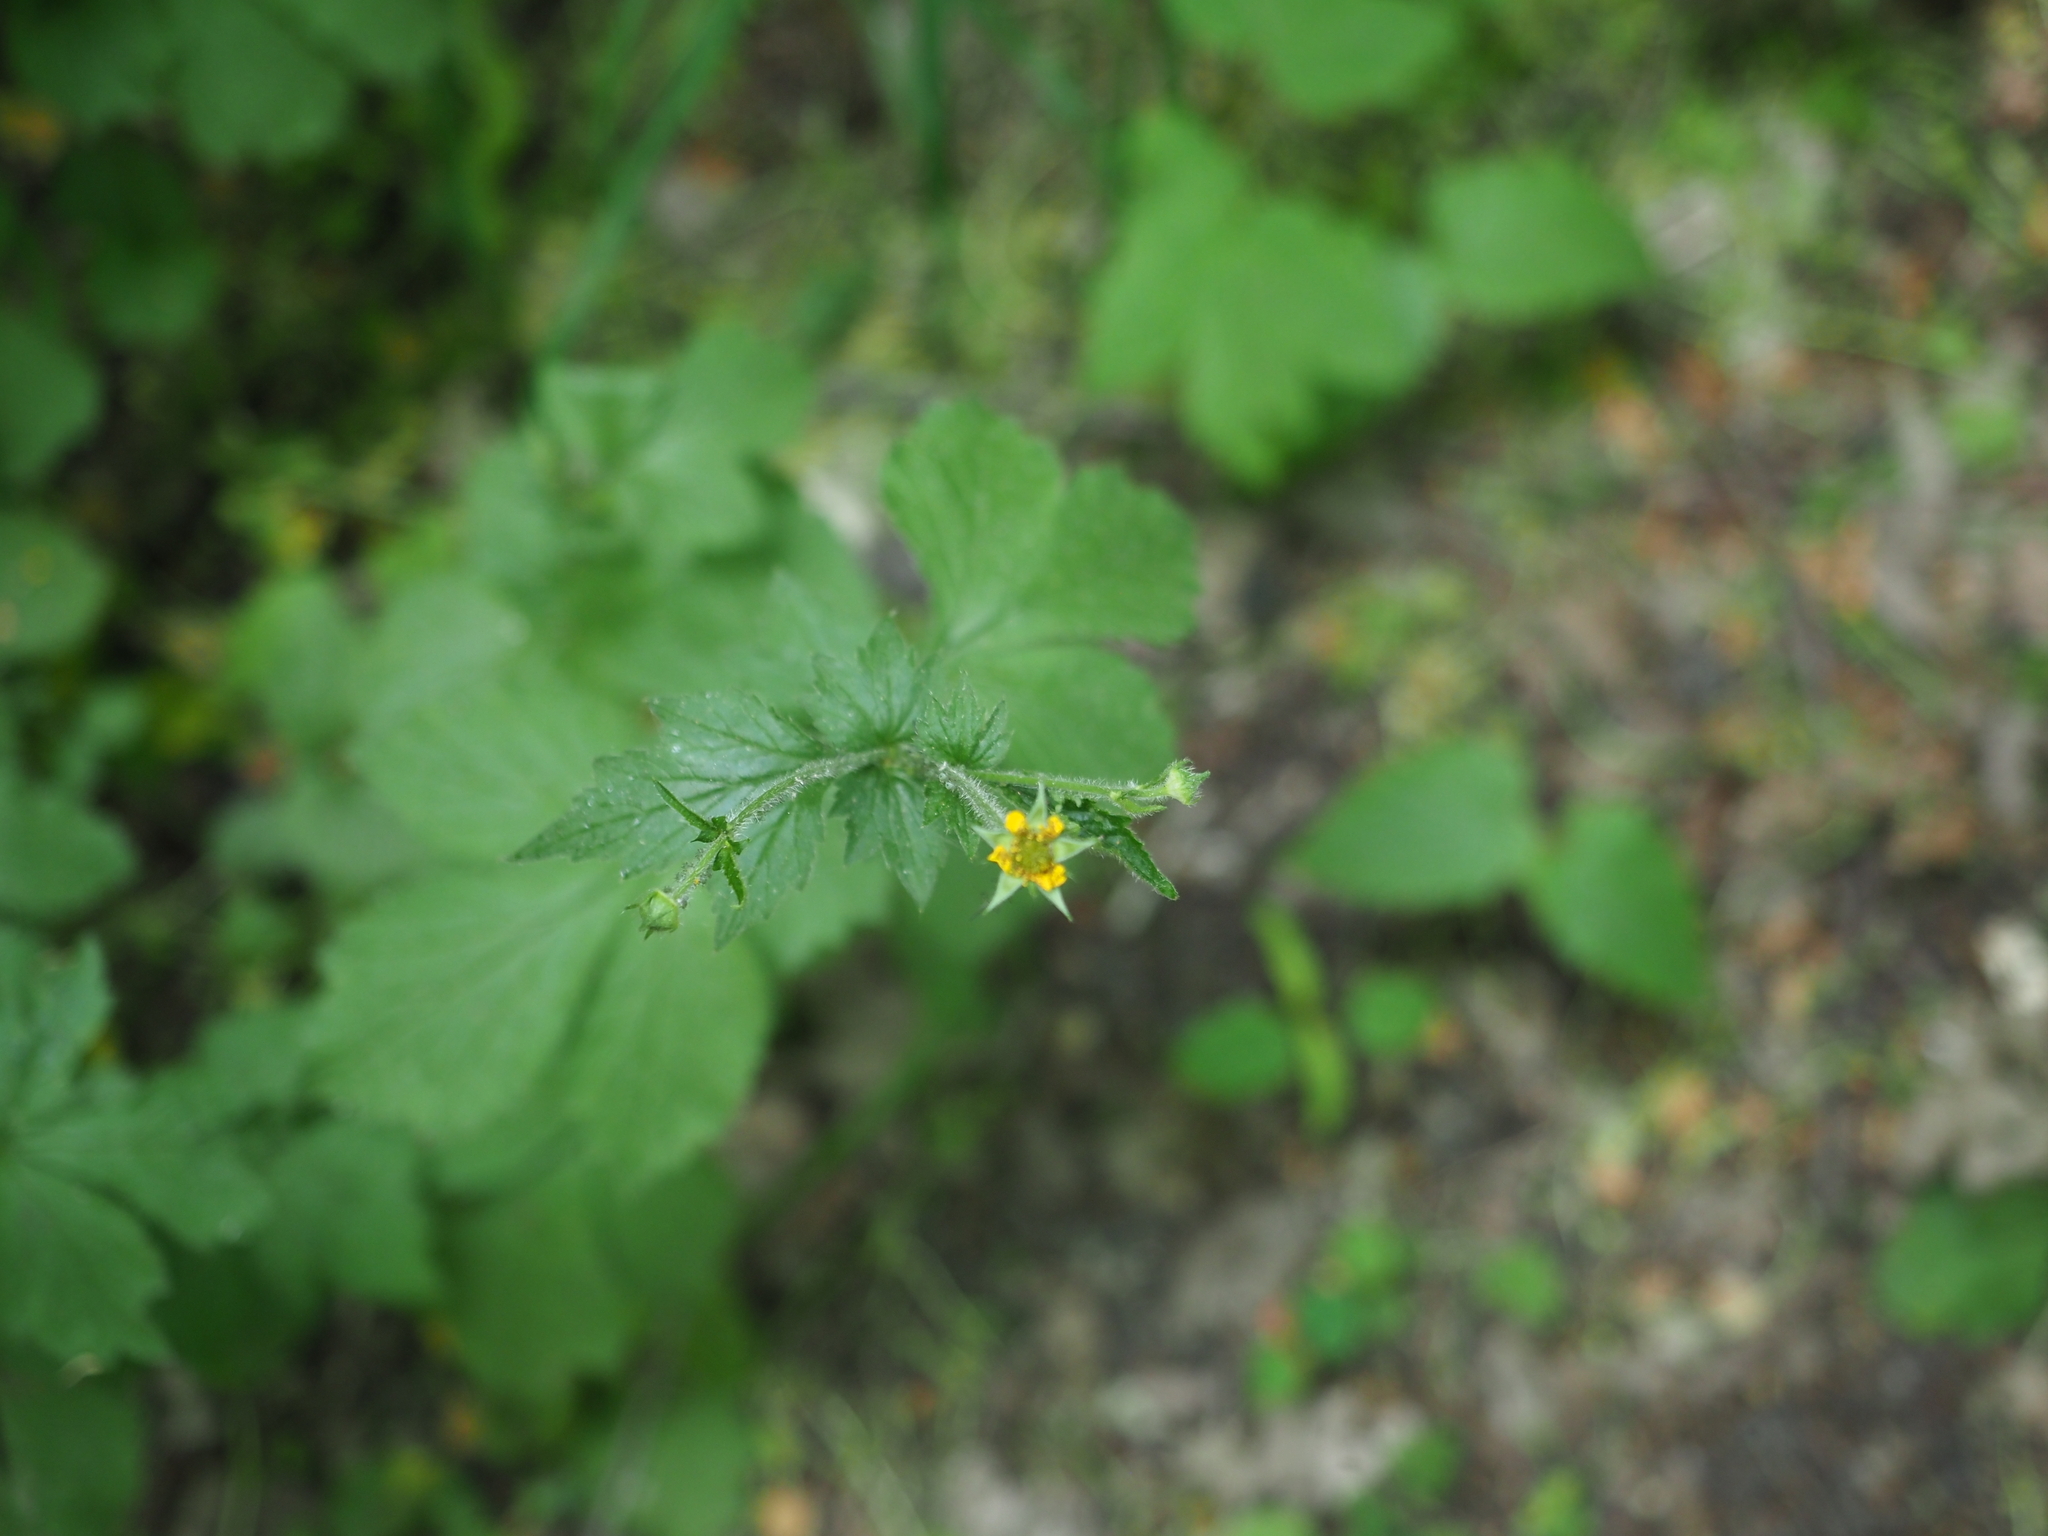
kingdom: Plantae
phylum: Tracheophyta
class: Magnoliopsida
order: Rosales
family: Rosaceae
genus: Geum
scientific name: Geum urbanum
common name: Wood avens
